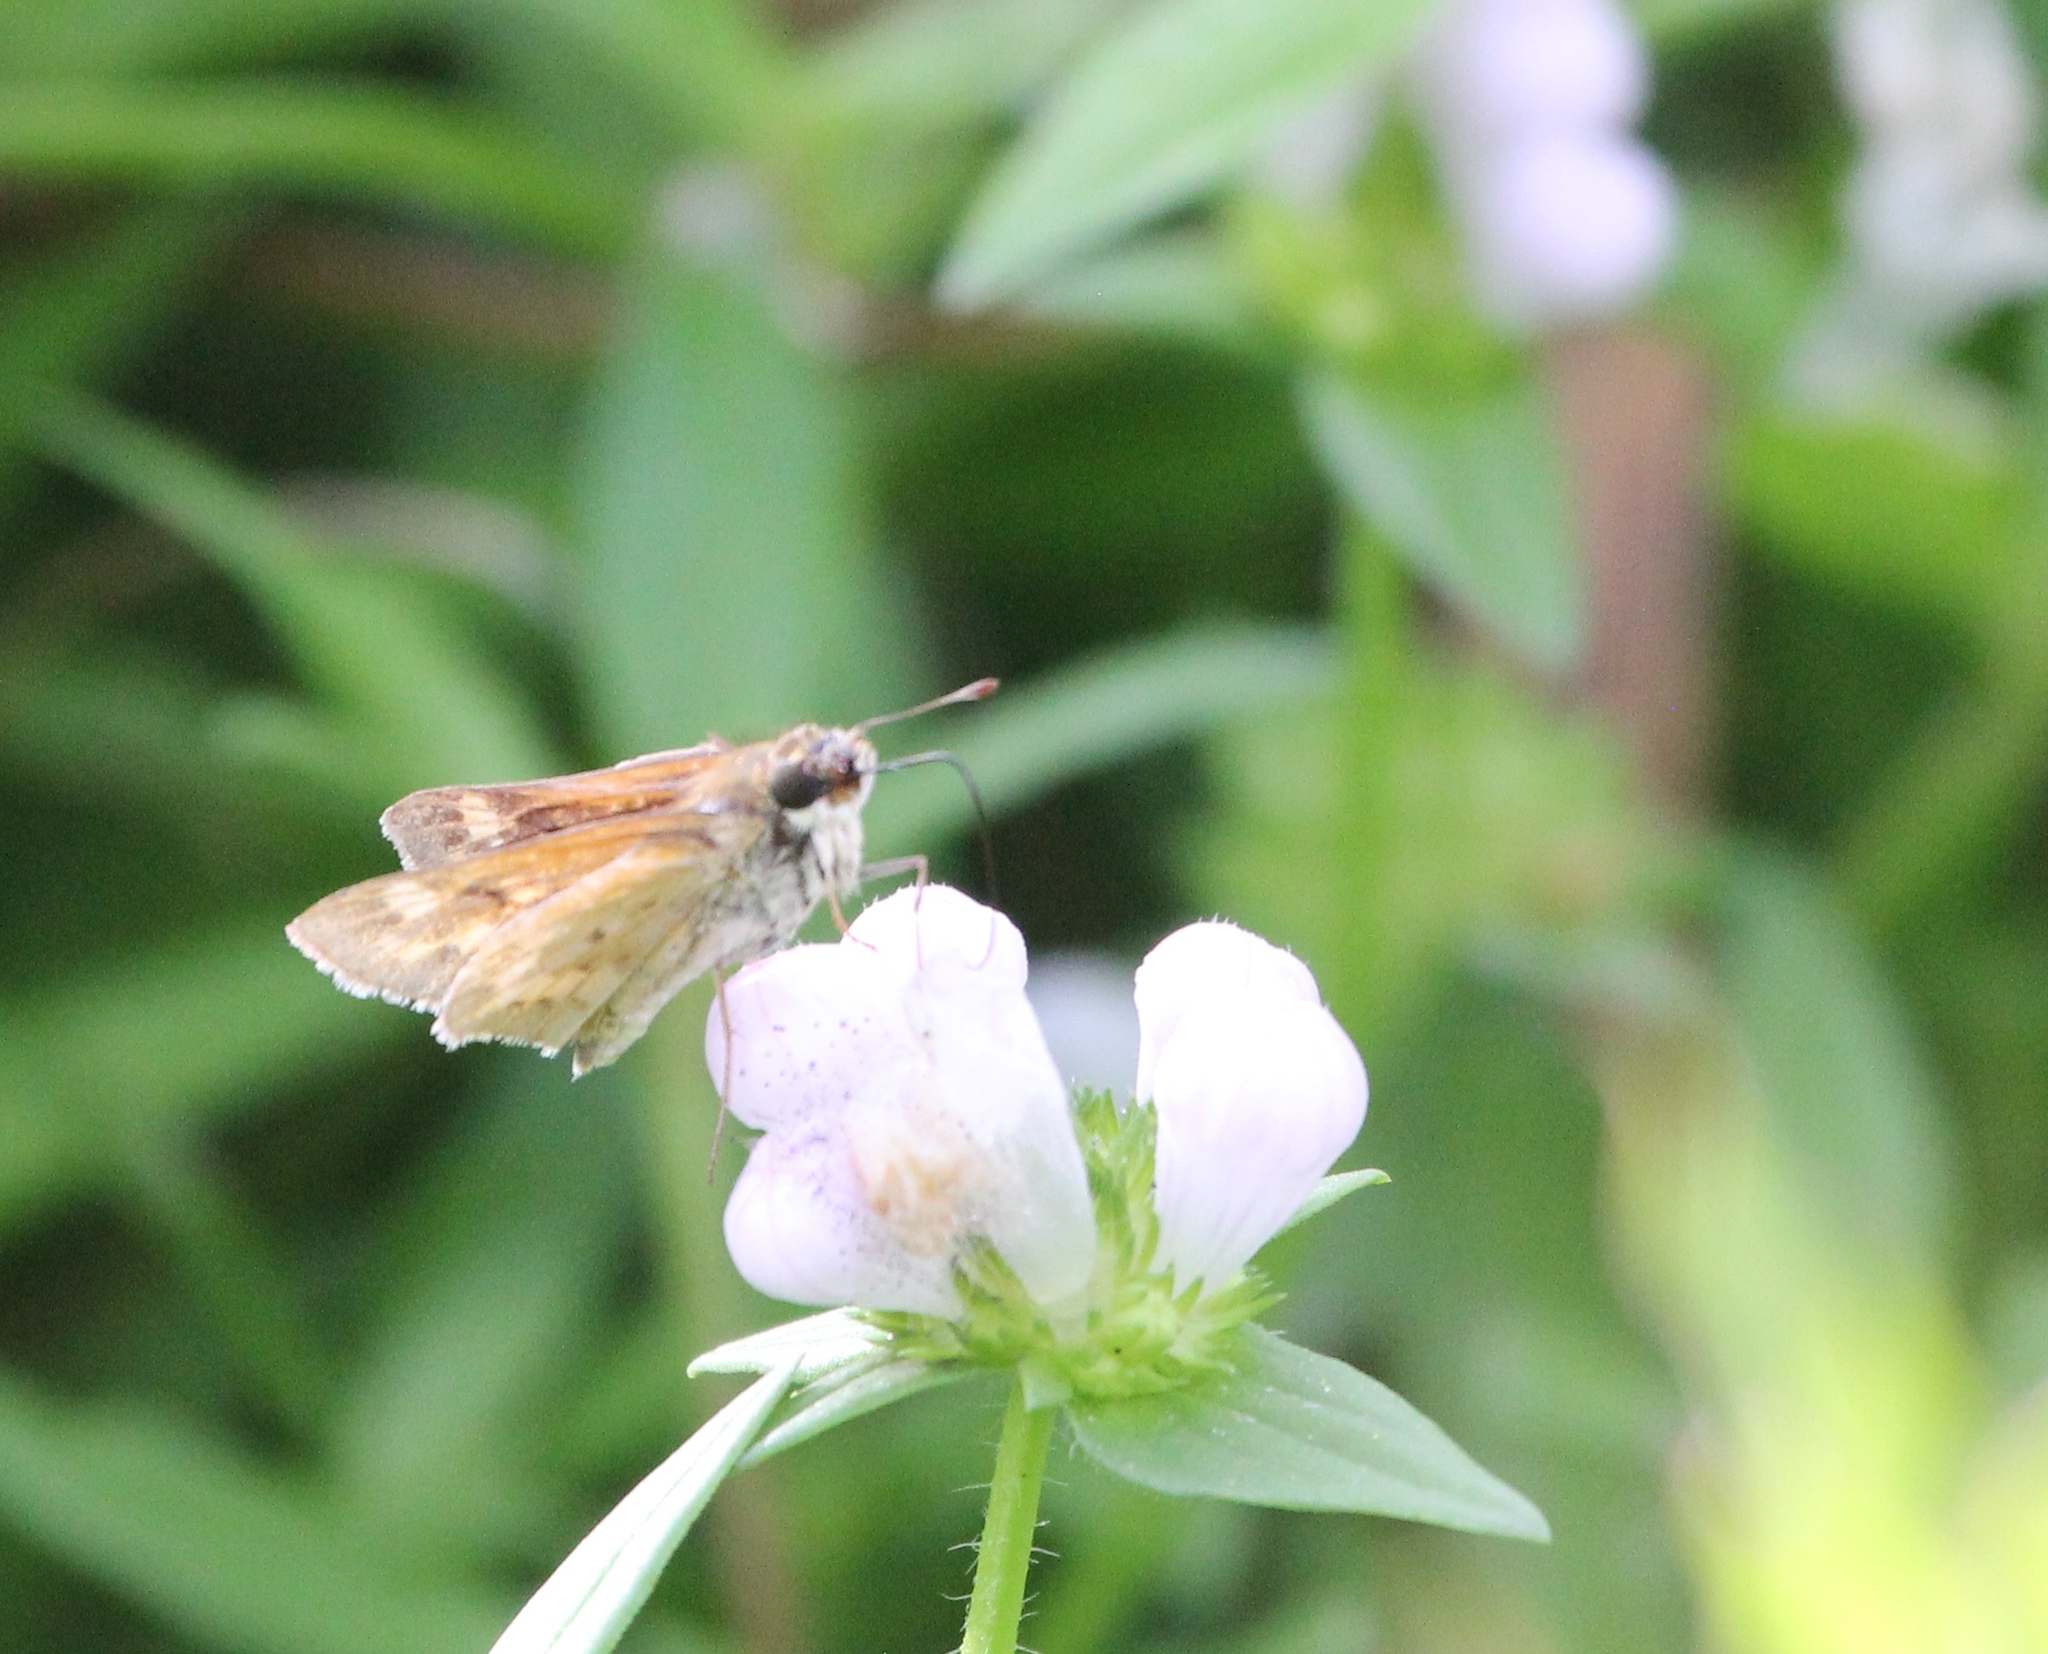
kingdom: Animalia
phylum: Arthropoda
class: Insecta
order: Lepidoptera
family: Hesperiidae
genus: Hylephila
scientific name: Hylephila phyleus
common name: Fiery skipper
